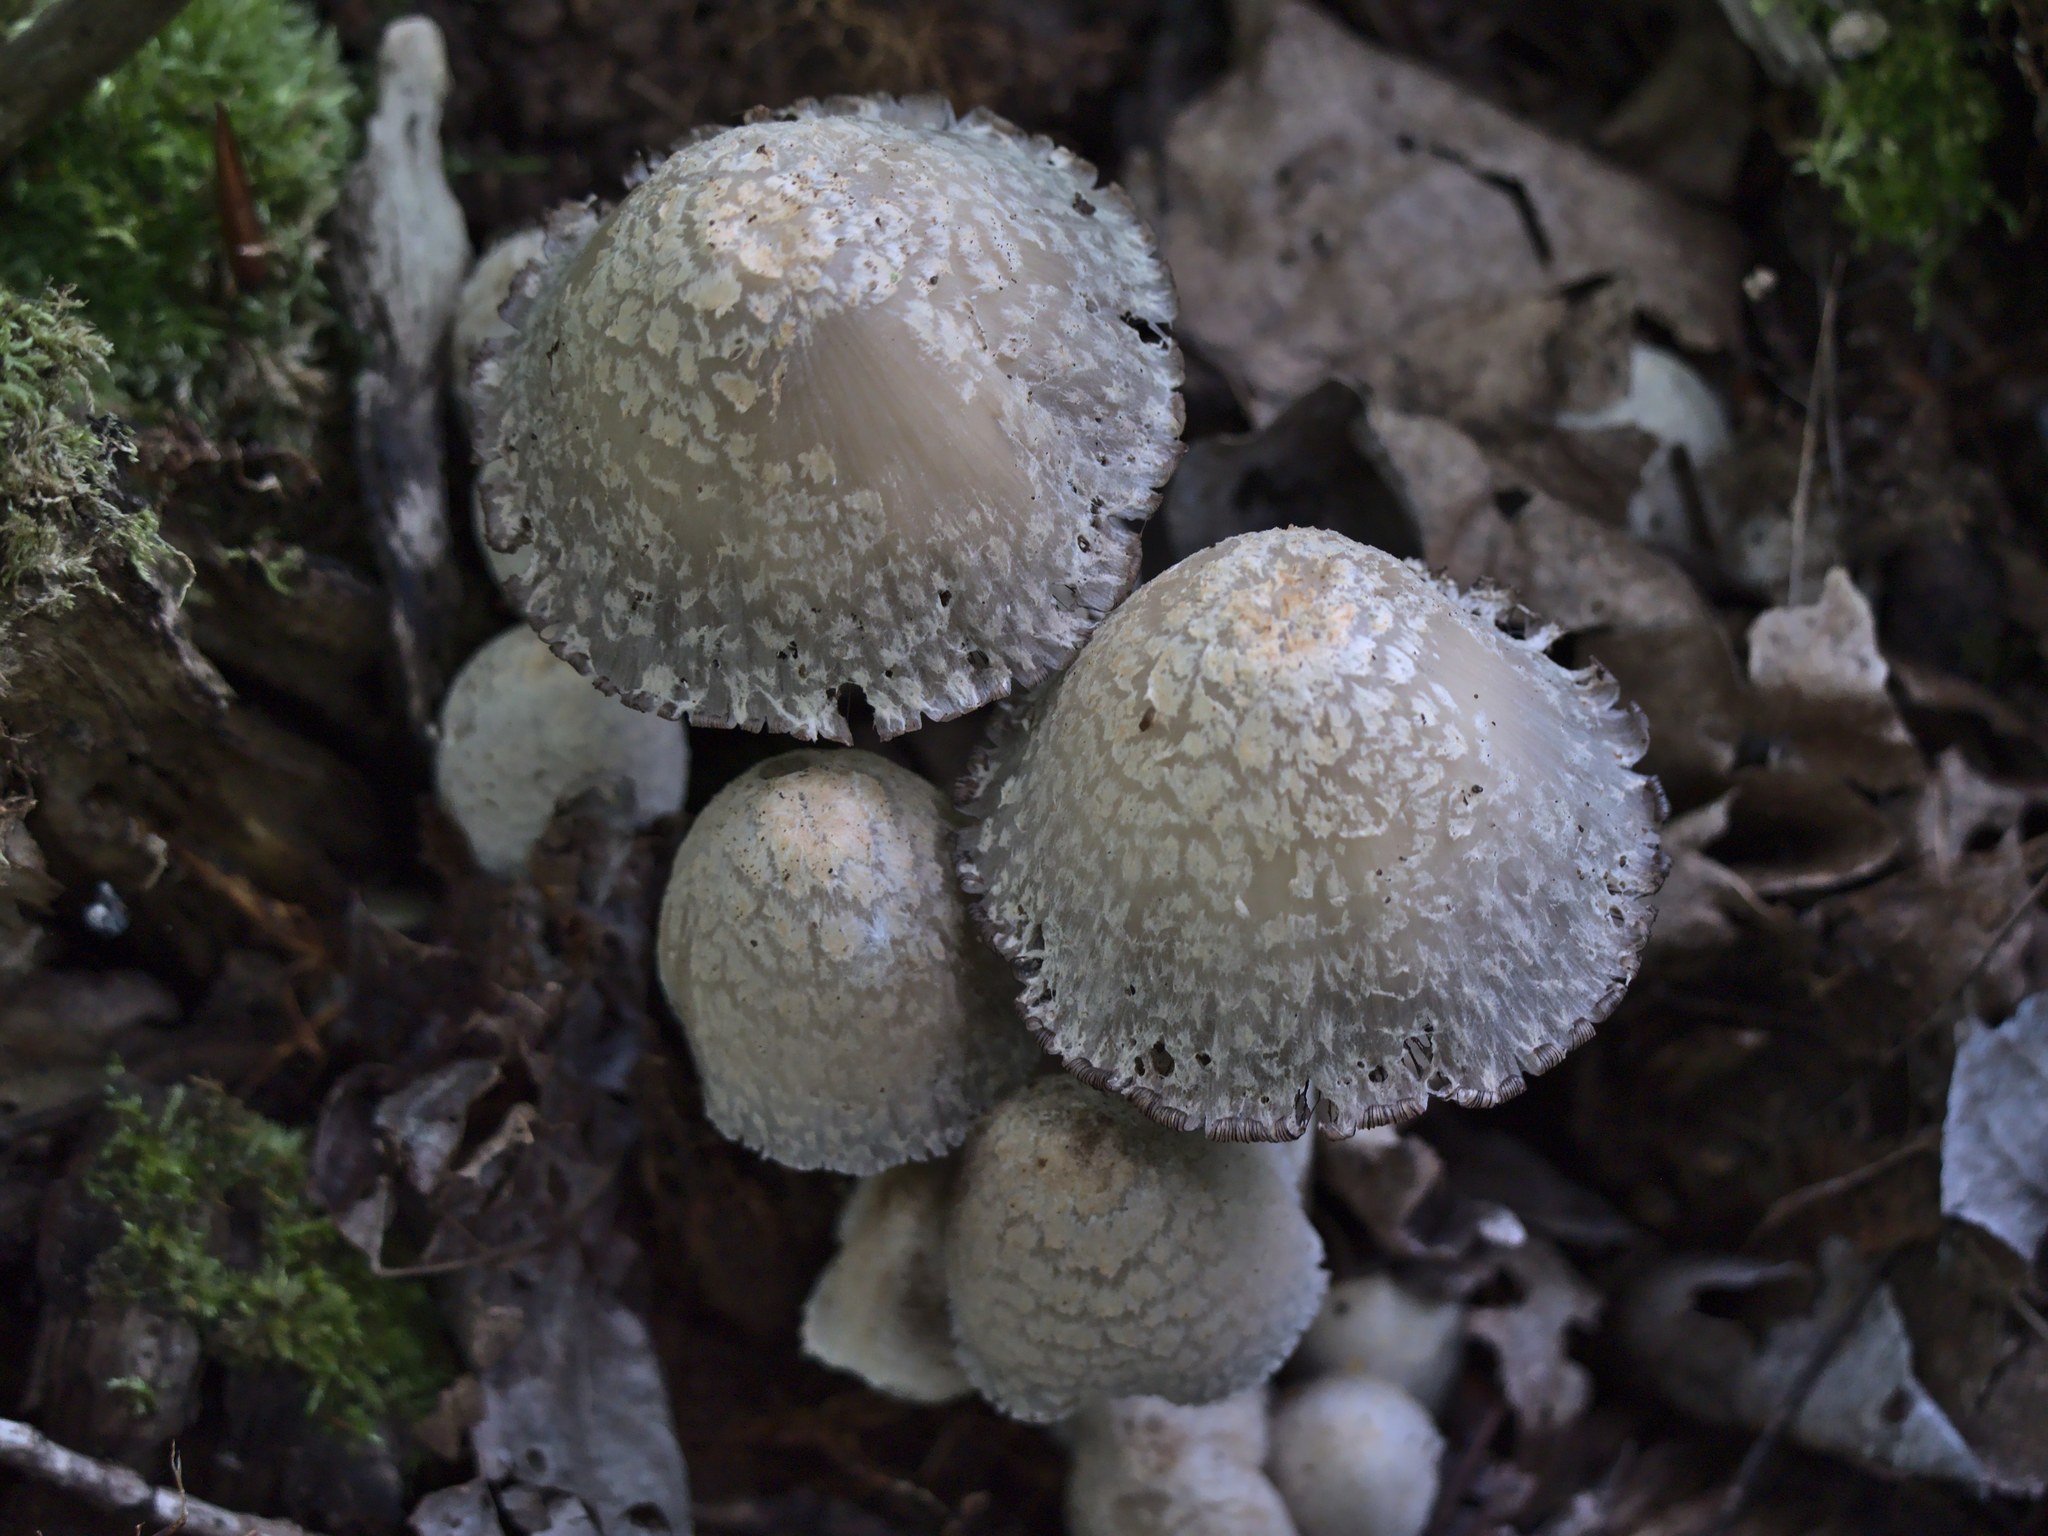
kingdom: Fungi
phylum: Basidiomycota
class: Agaricomycetes
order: Agaricales
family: Psathyrellaceae
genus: Coprinopsis
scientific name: Coprinopsis variegata
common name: Scaly ink cap
